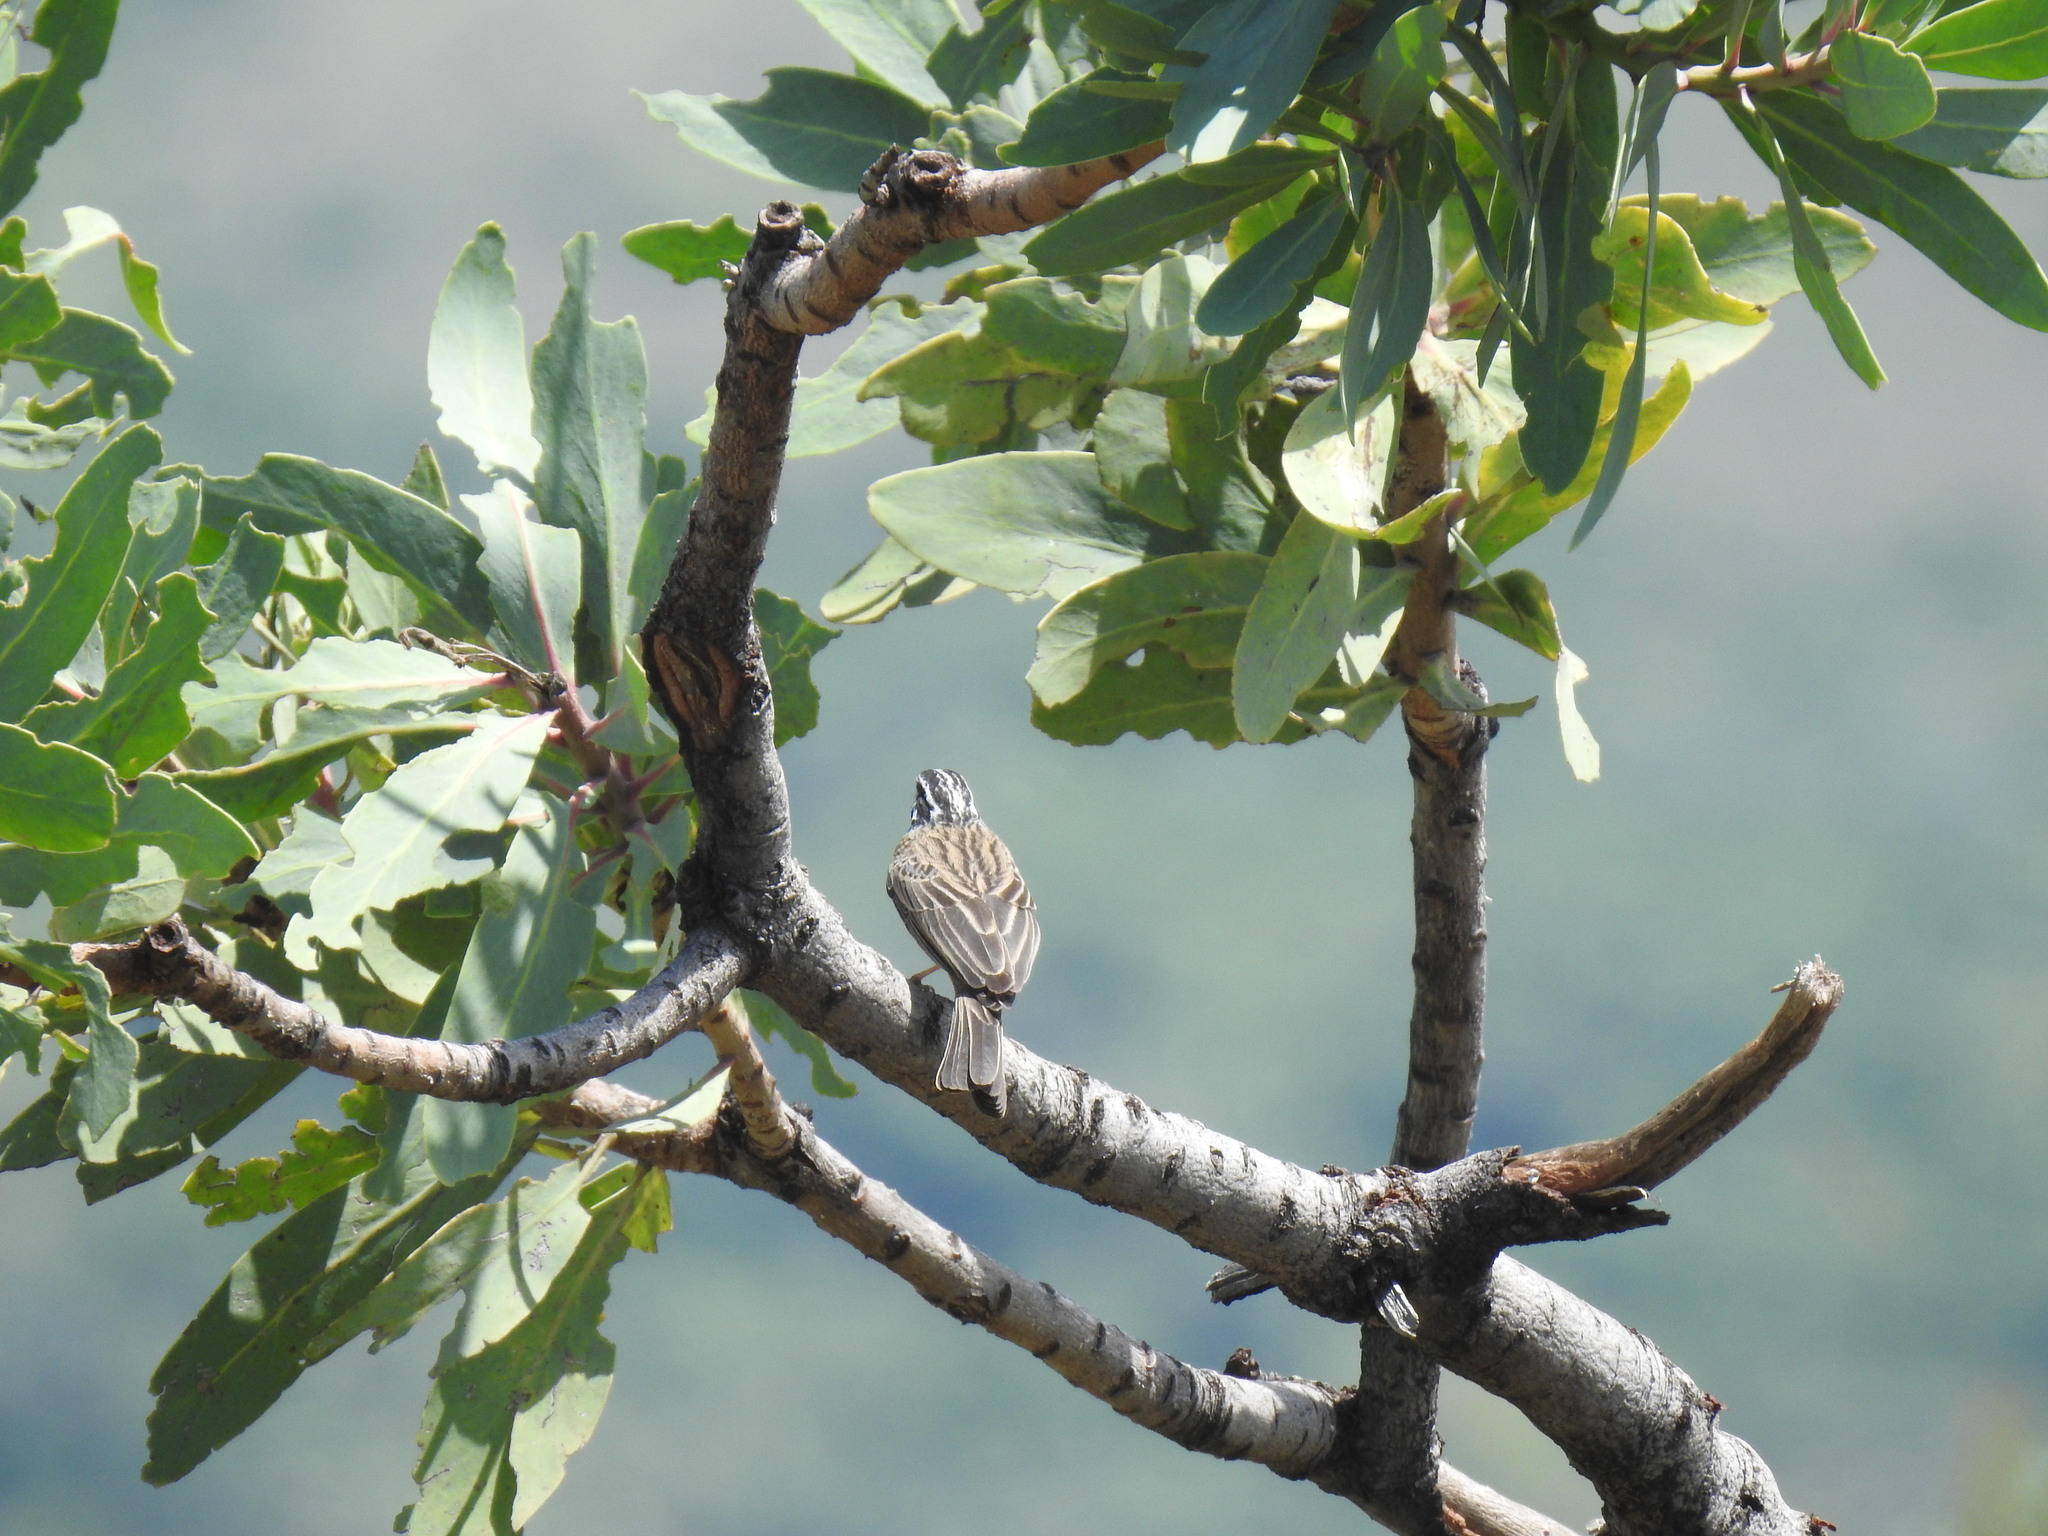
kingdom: Animalia
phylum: Chordata
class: Aves
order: Passeriformes
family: Emberizidae
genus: Emberiza
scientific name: Emberiza tahapisi
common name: Cinnamon-breasted bunting
